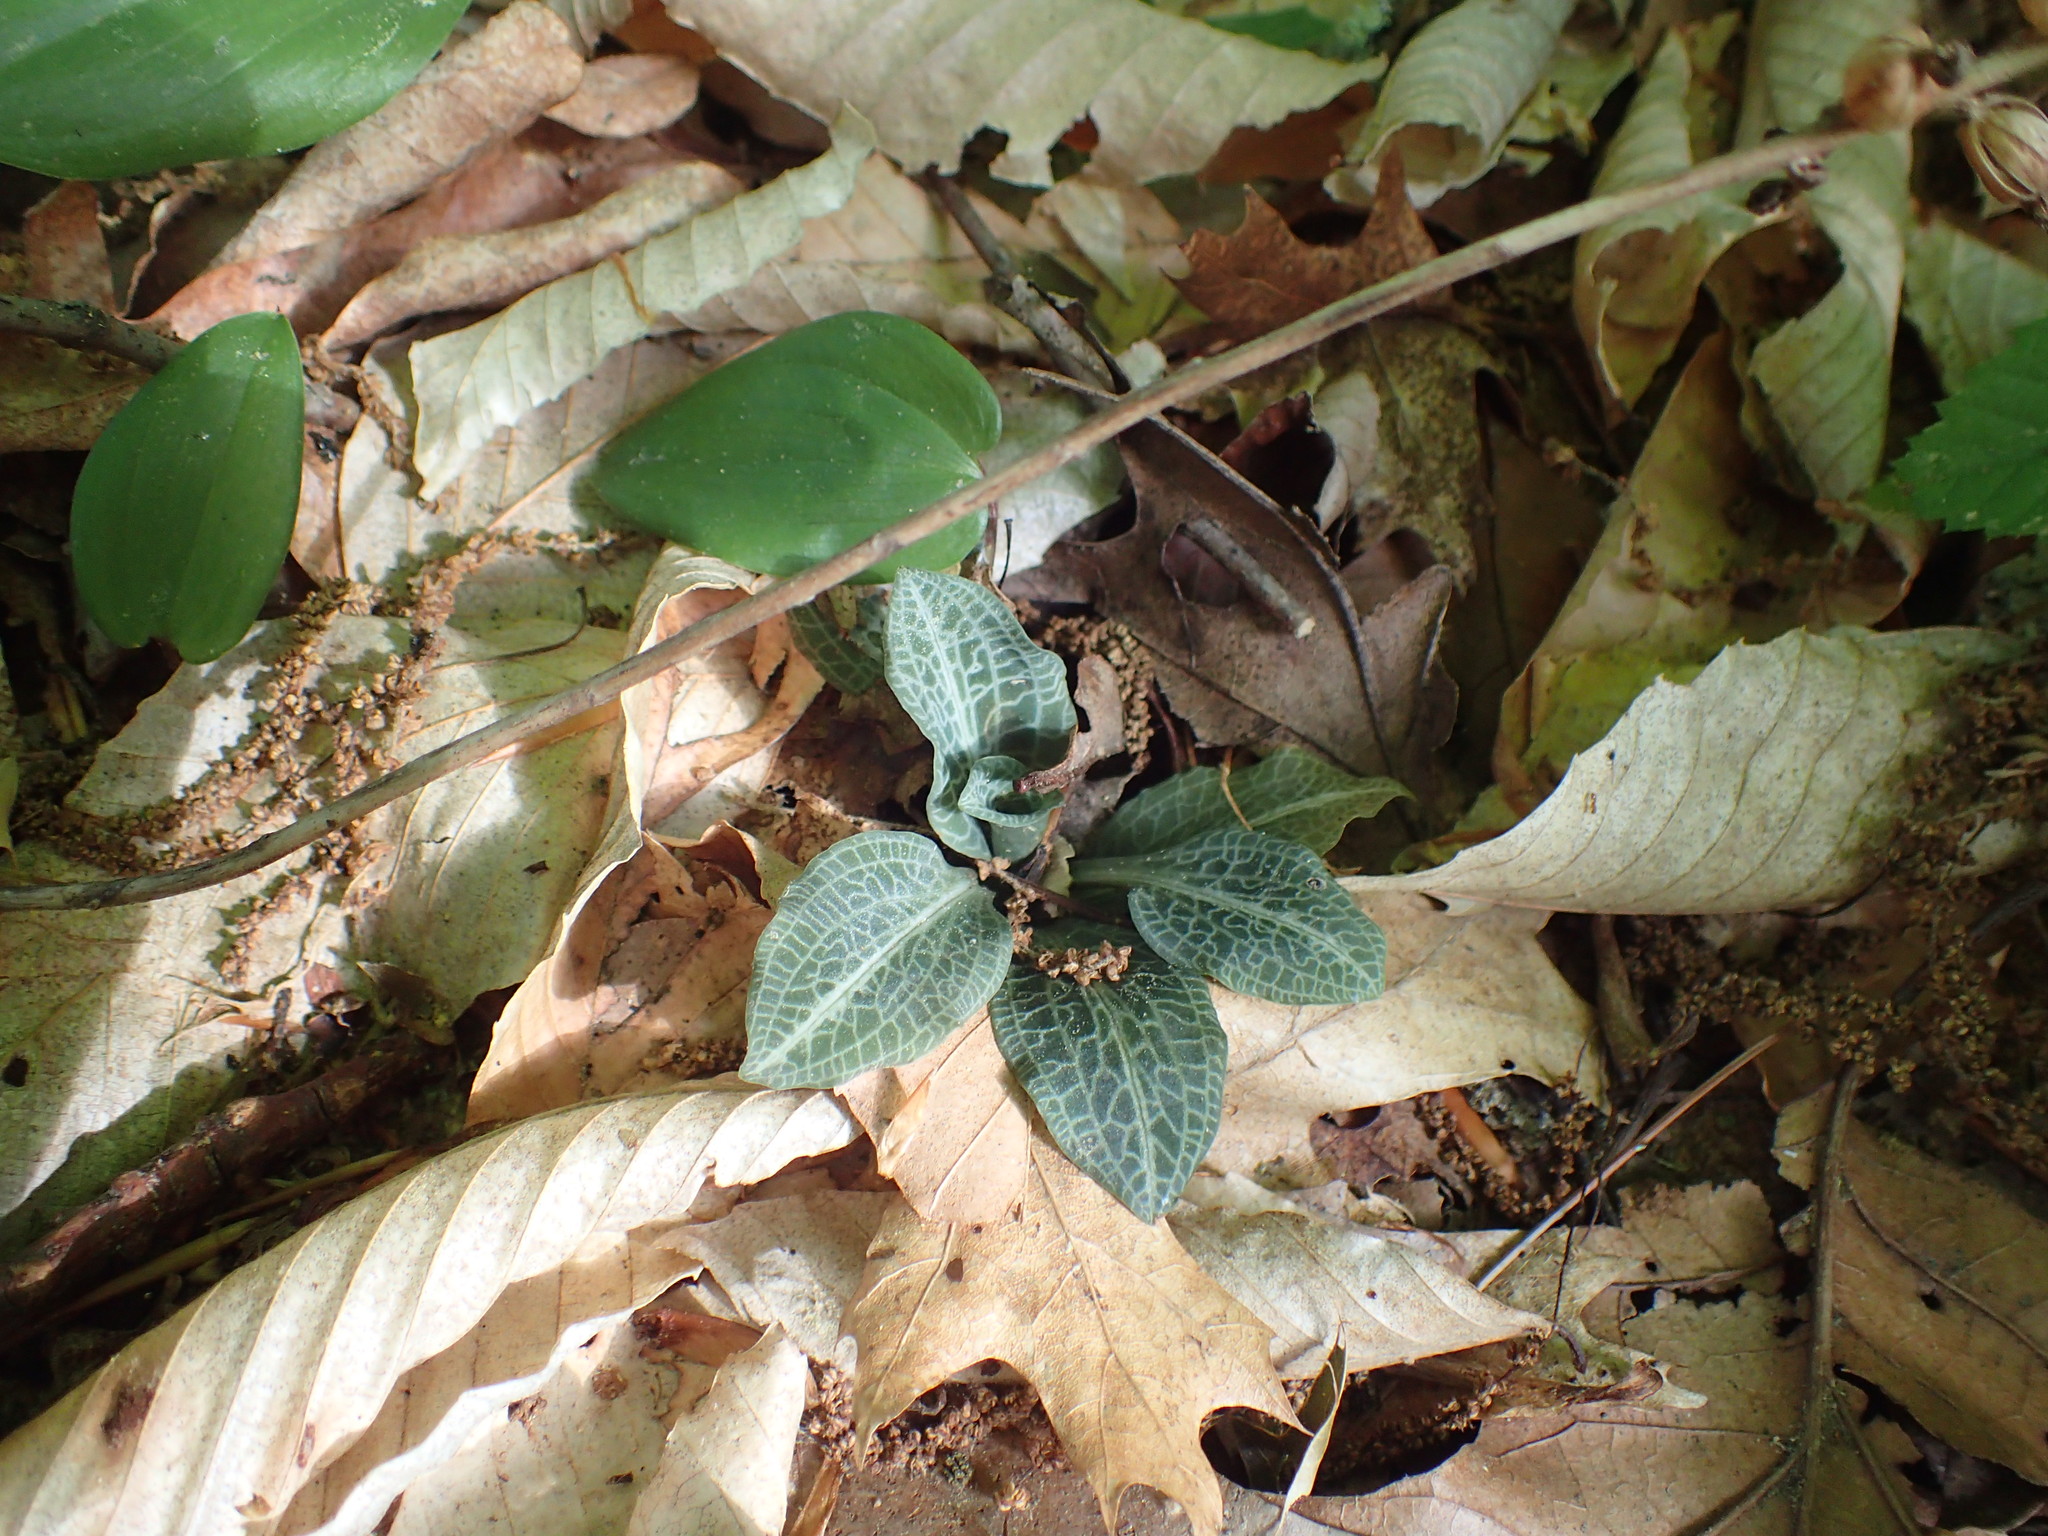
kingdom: Plantae
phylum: Tracheophyta
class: Liliopsida
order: Asparagales
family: Orchidaceae
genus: Goodyera
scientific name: Goodyera pubescens
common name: Downy rattlesnake-plantain
